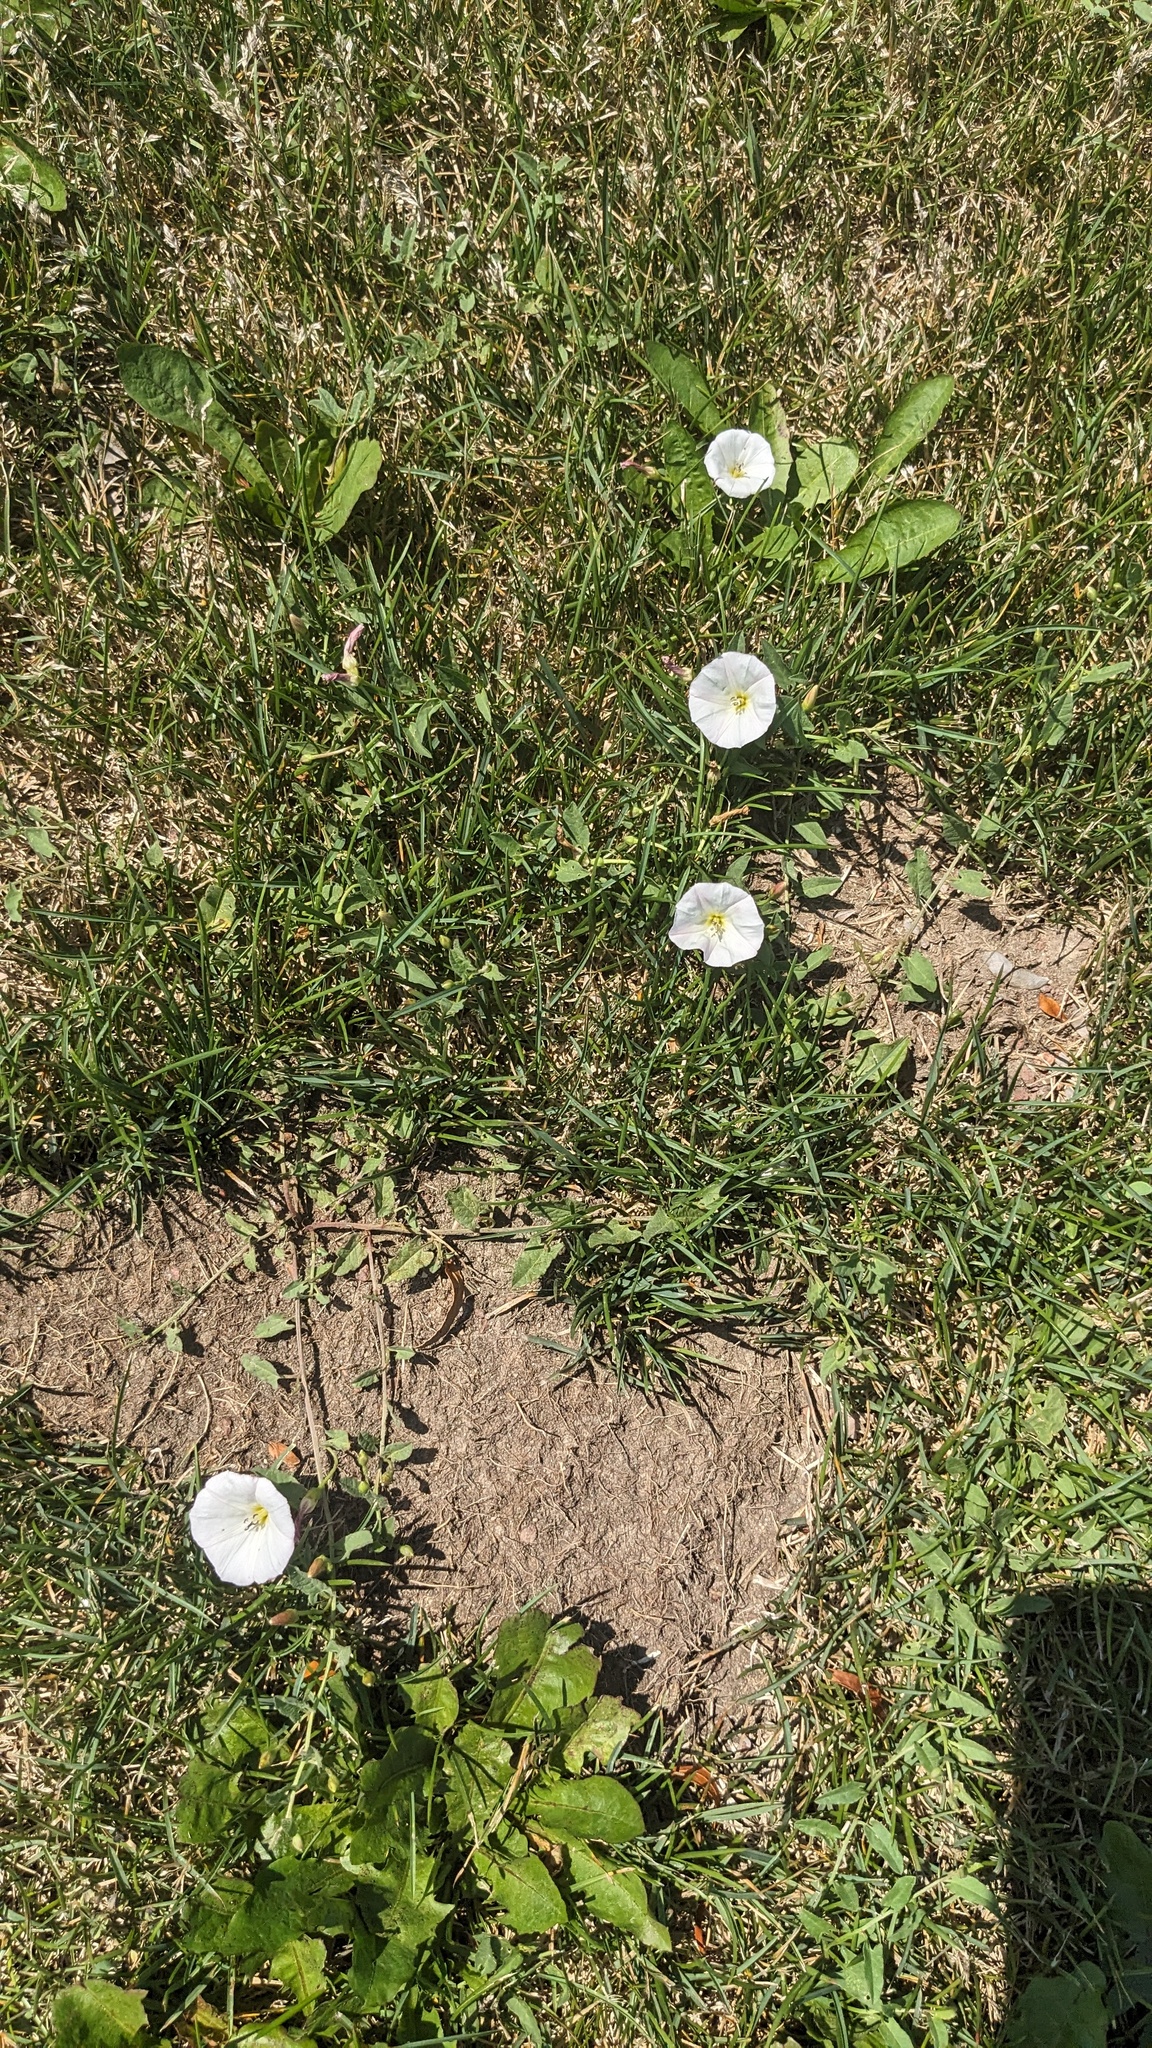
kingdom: Plantae
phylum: Tracheophyta
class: Magnoliopsida
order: Solanales
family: Convolvulaceae
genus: Convolvulus
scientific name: Convolvulus arvensis
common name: Field bindweed
